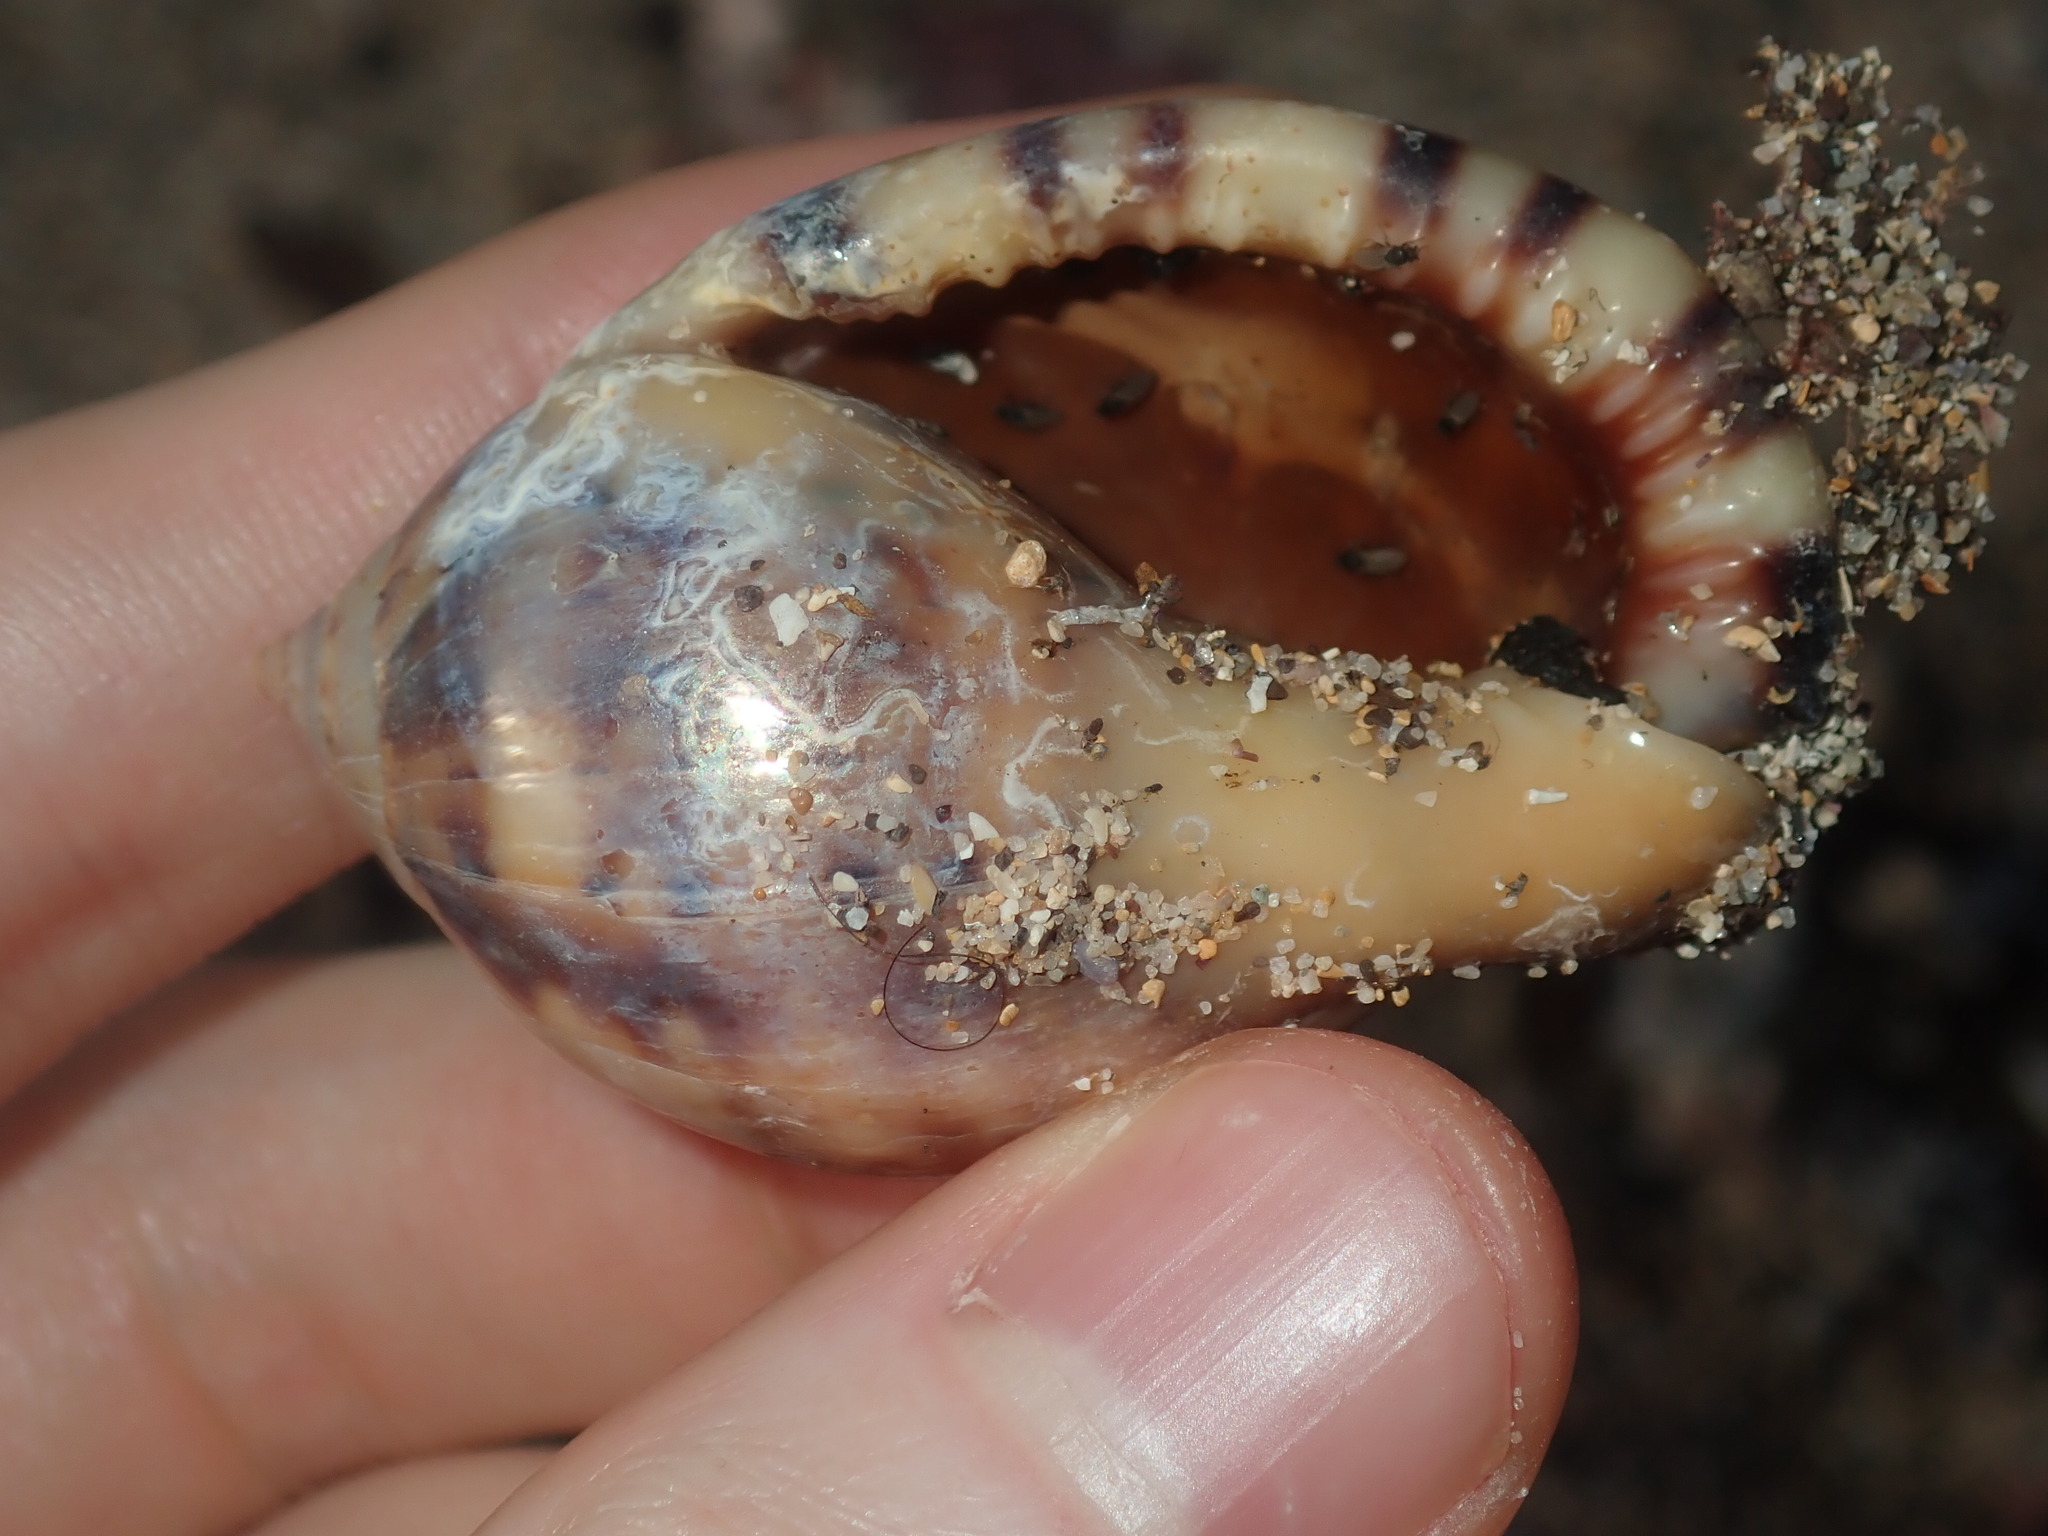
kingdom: Animalia
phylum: Mollusca
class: Gastropoda
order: Littorinimorpha
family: Cassidae
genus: Semicassis
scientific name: Semicassis labiata
